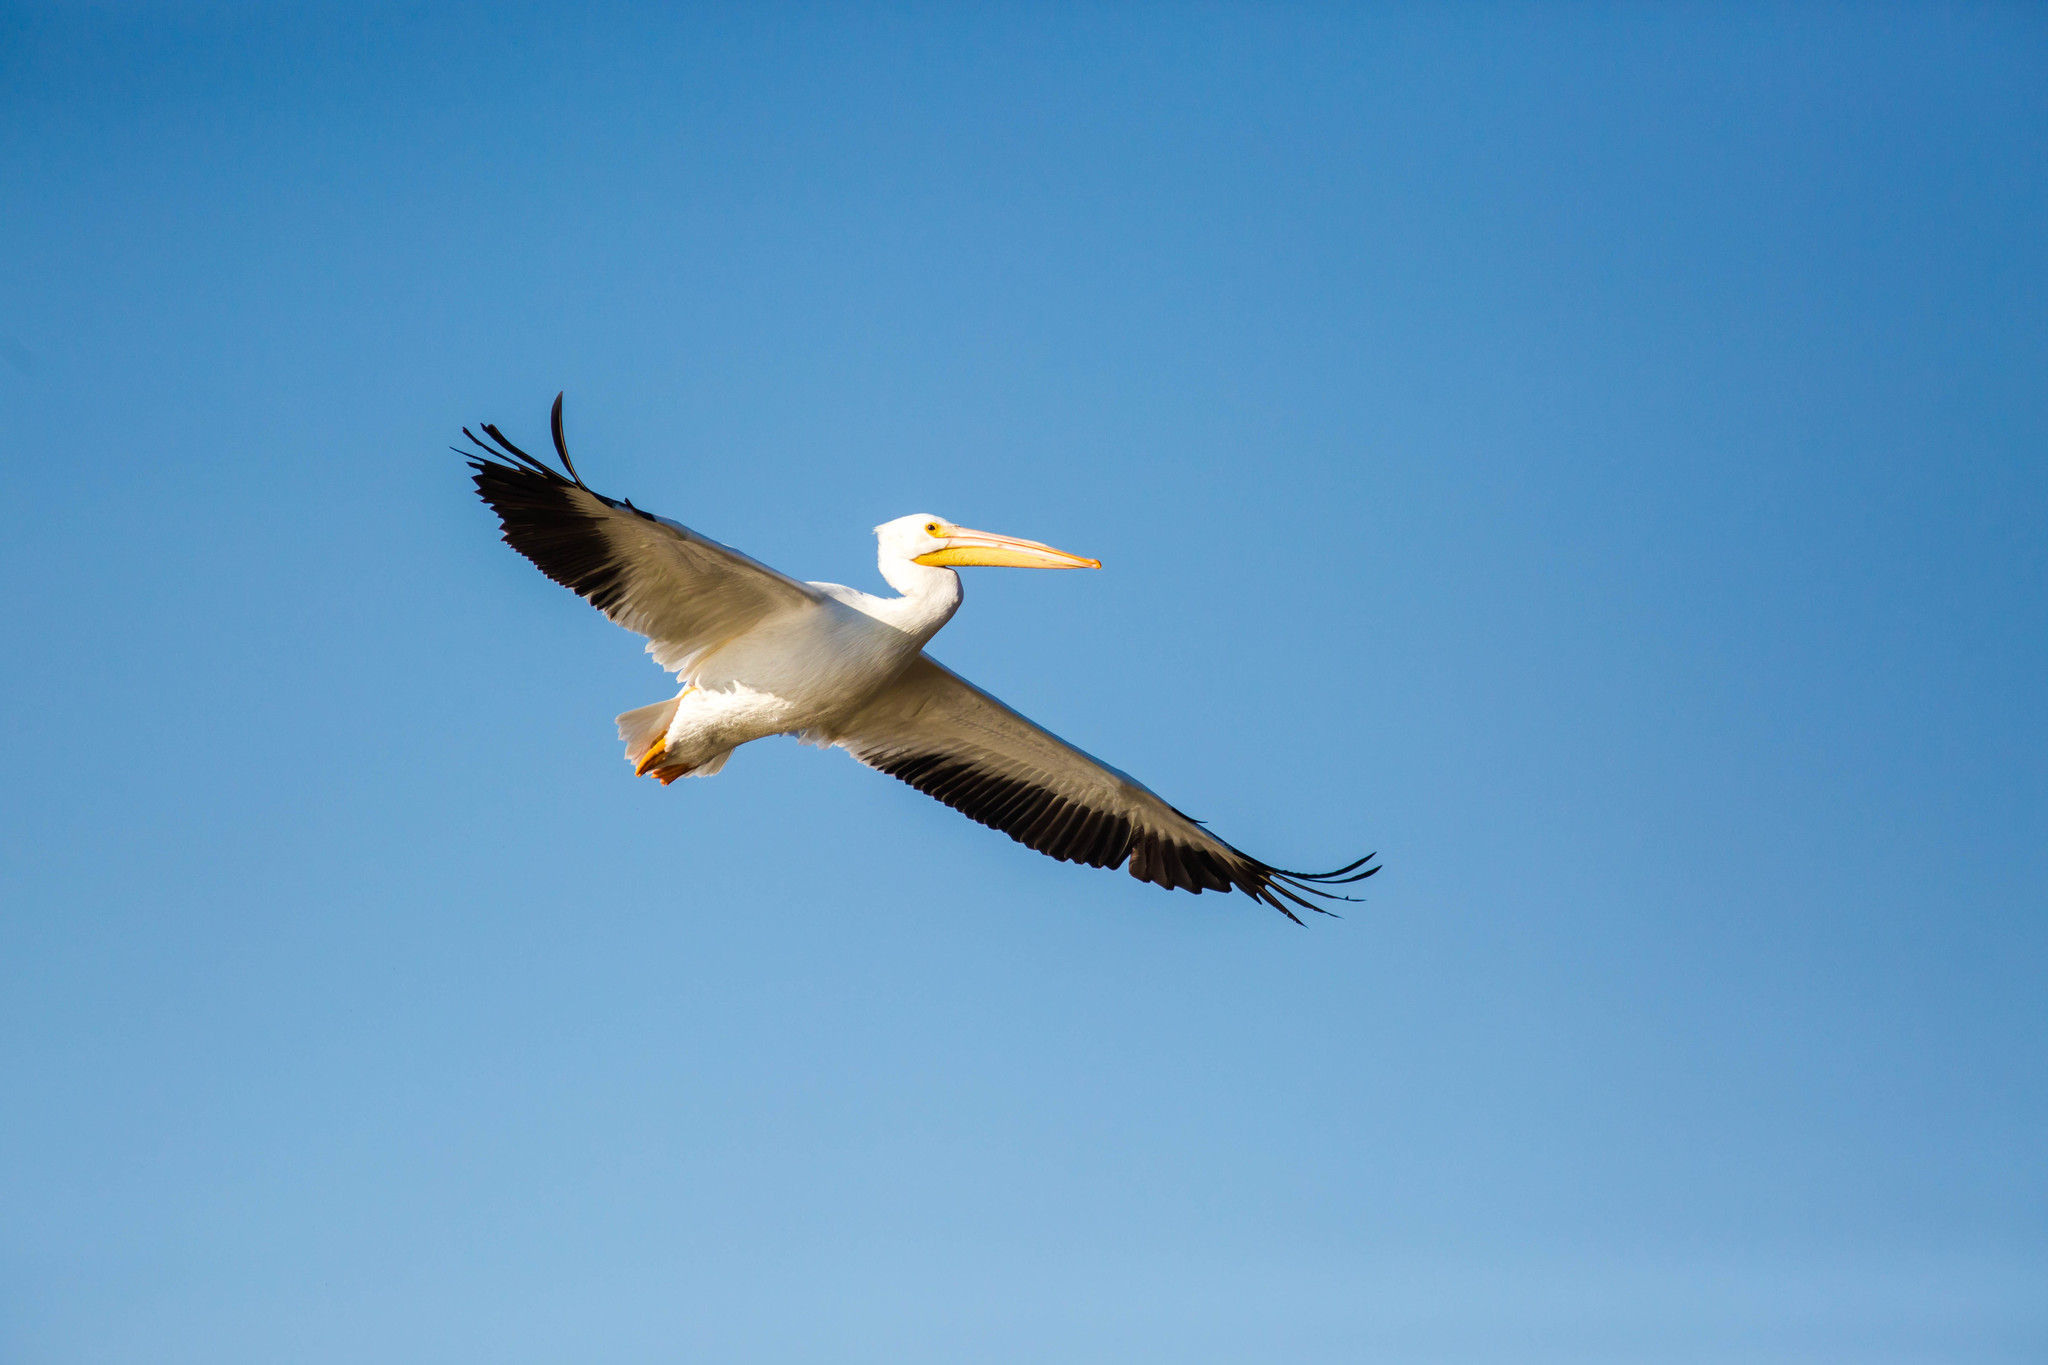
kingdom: Animalia
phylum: Chordata
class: Aves
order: Pelecaniformes
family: Pelecanidae
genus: Pelecanus
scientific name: Pelecanus erythrorhynchos
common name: American white pelican
